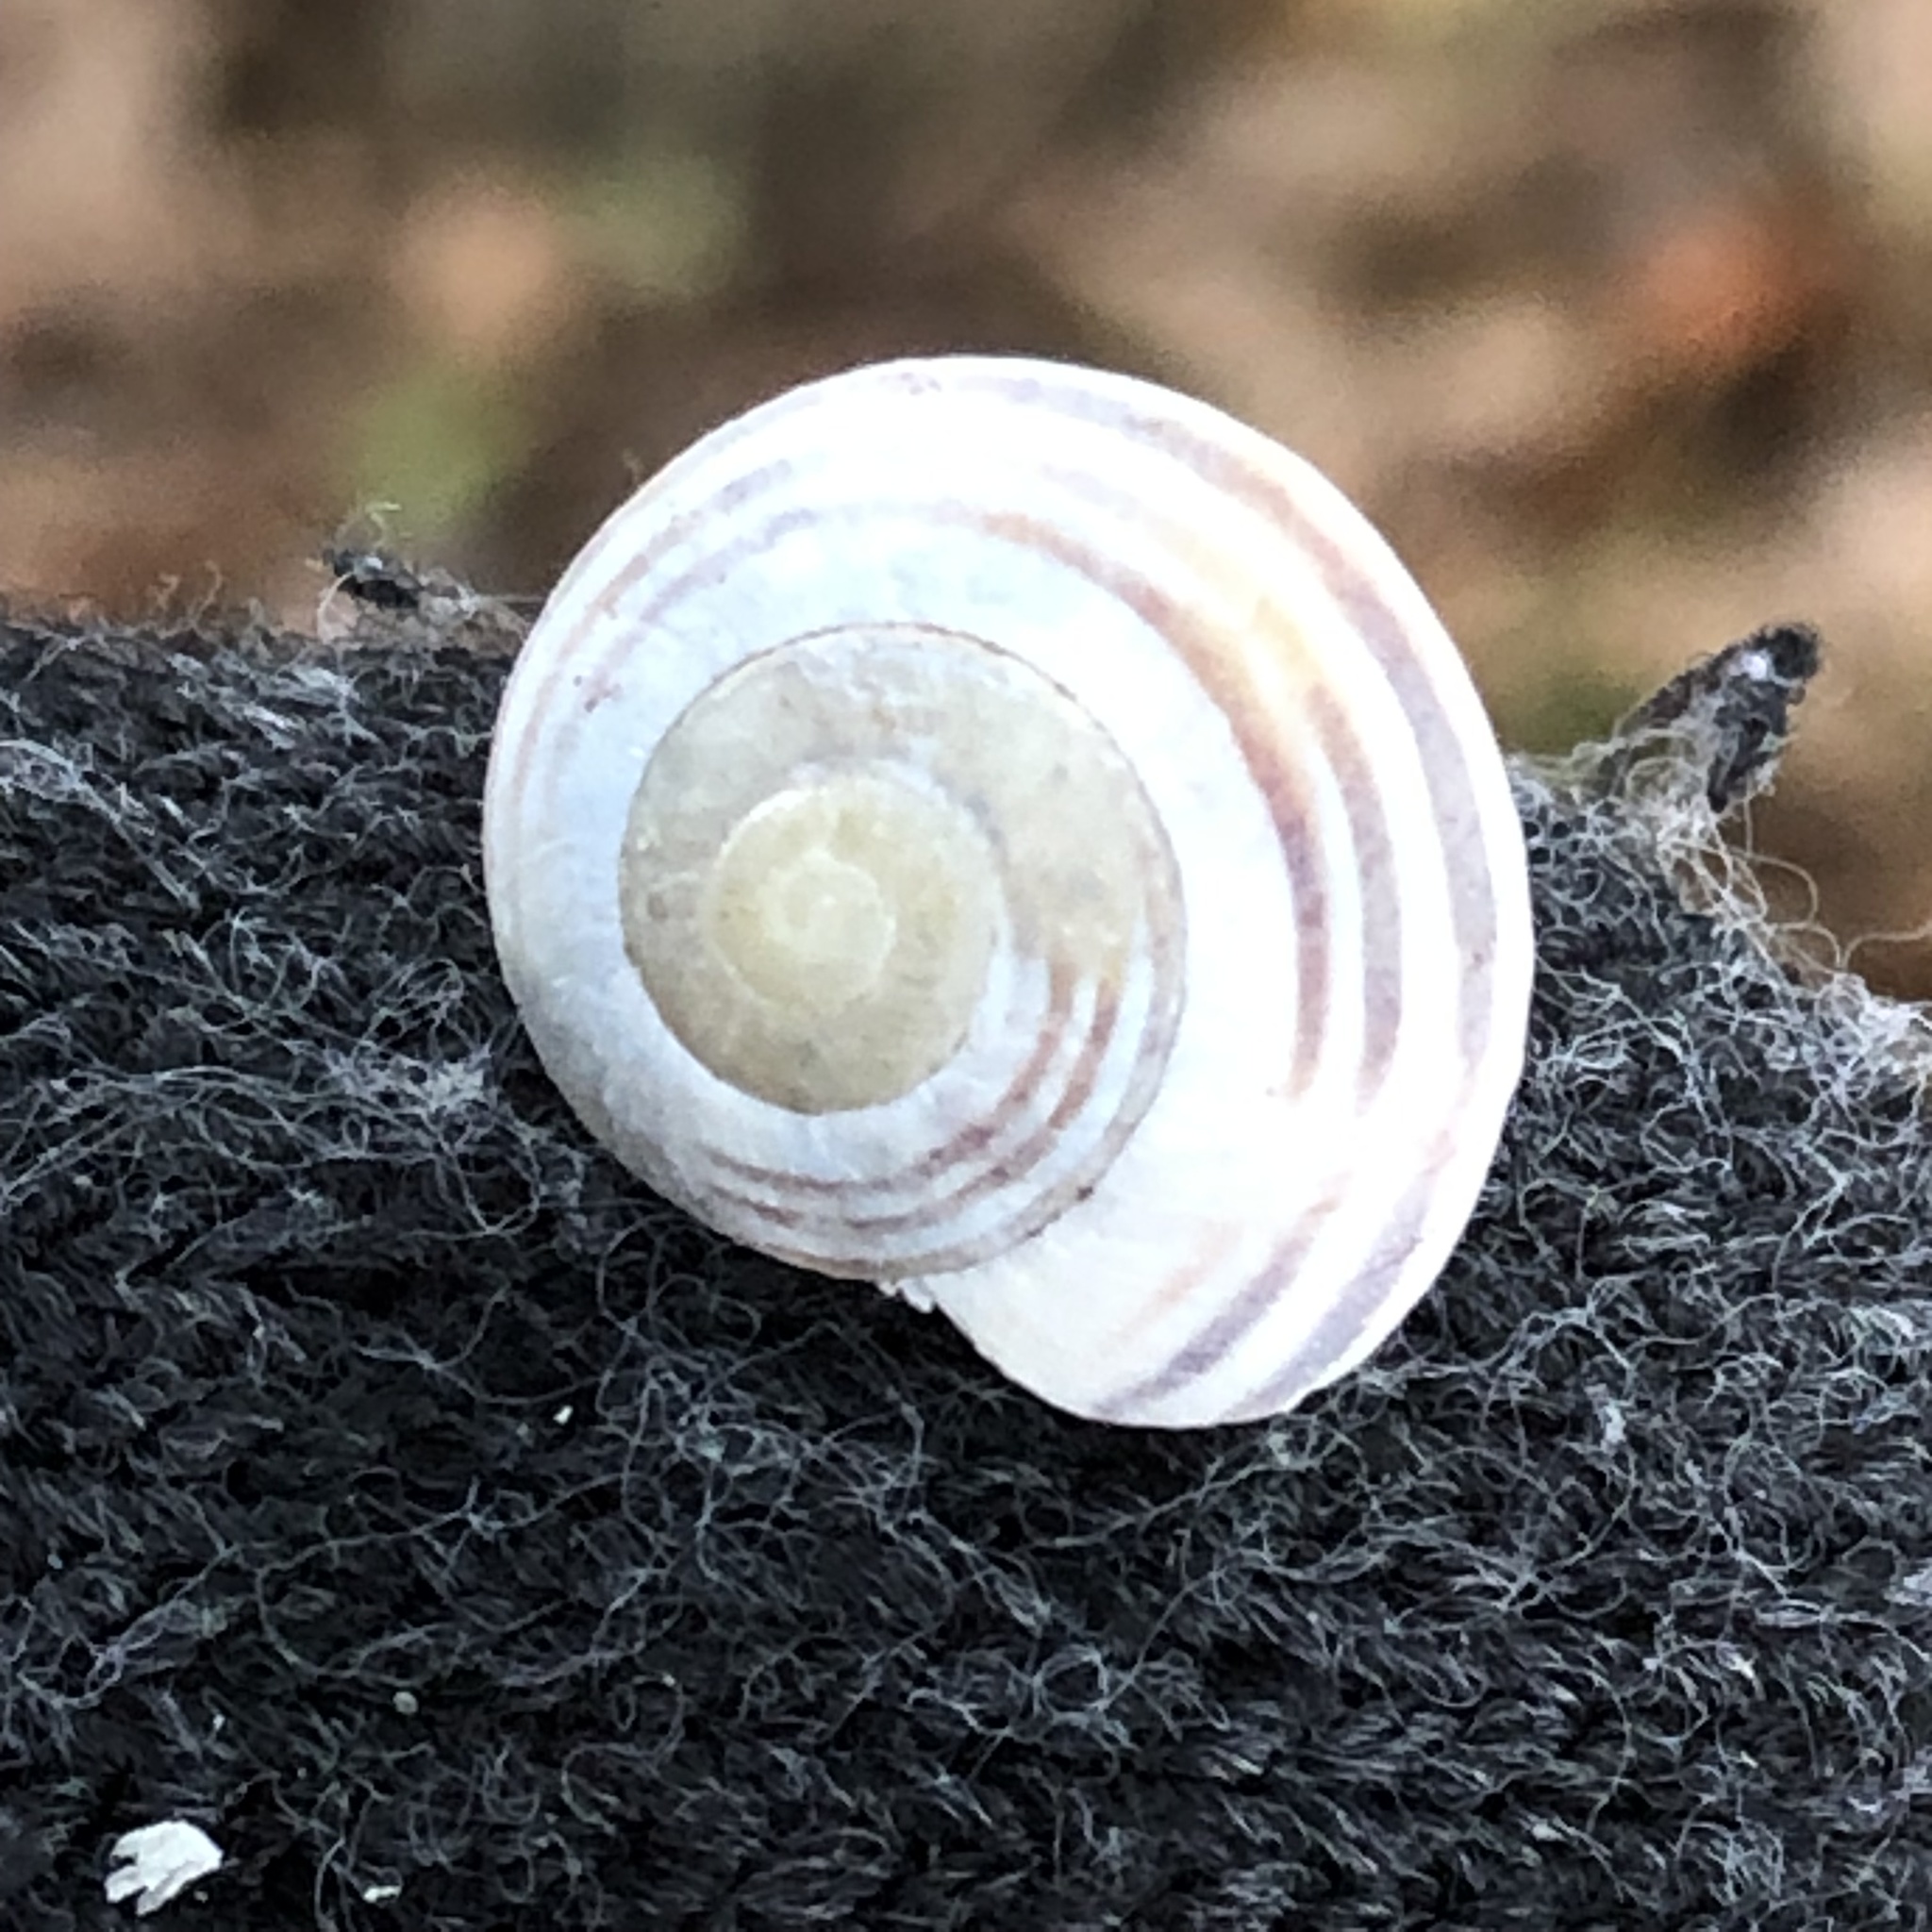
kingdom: Animalia
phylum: Mollusca
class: Gastropoda
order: Stylommatophora
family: Helicidae
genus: Cepaea
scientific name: Cepaea
